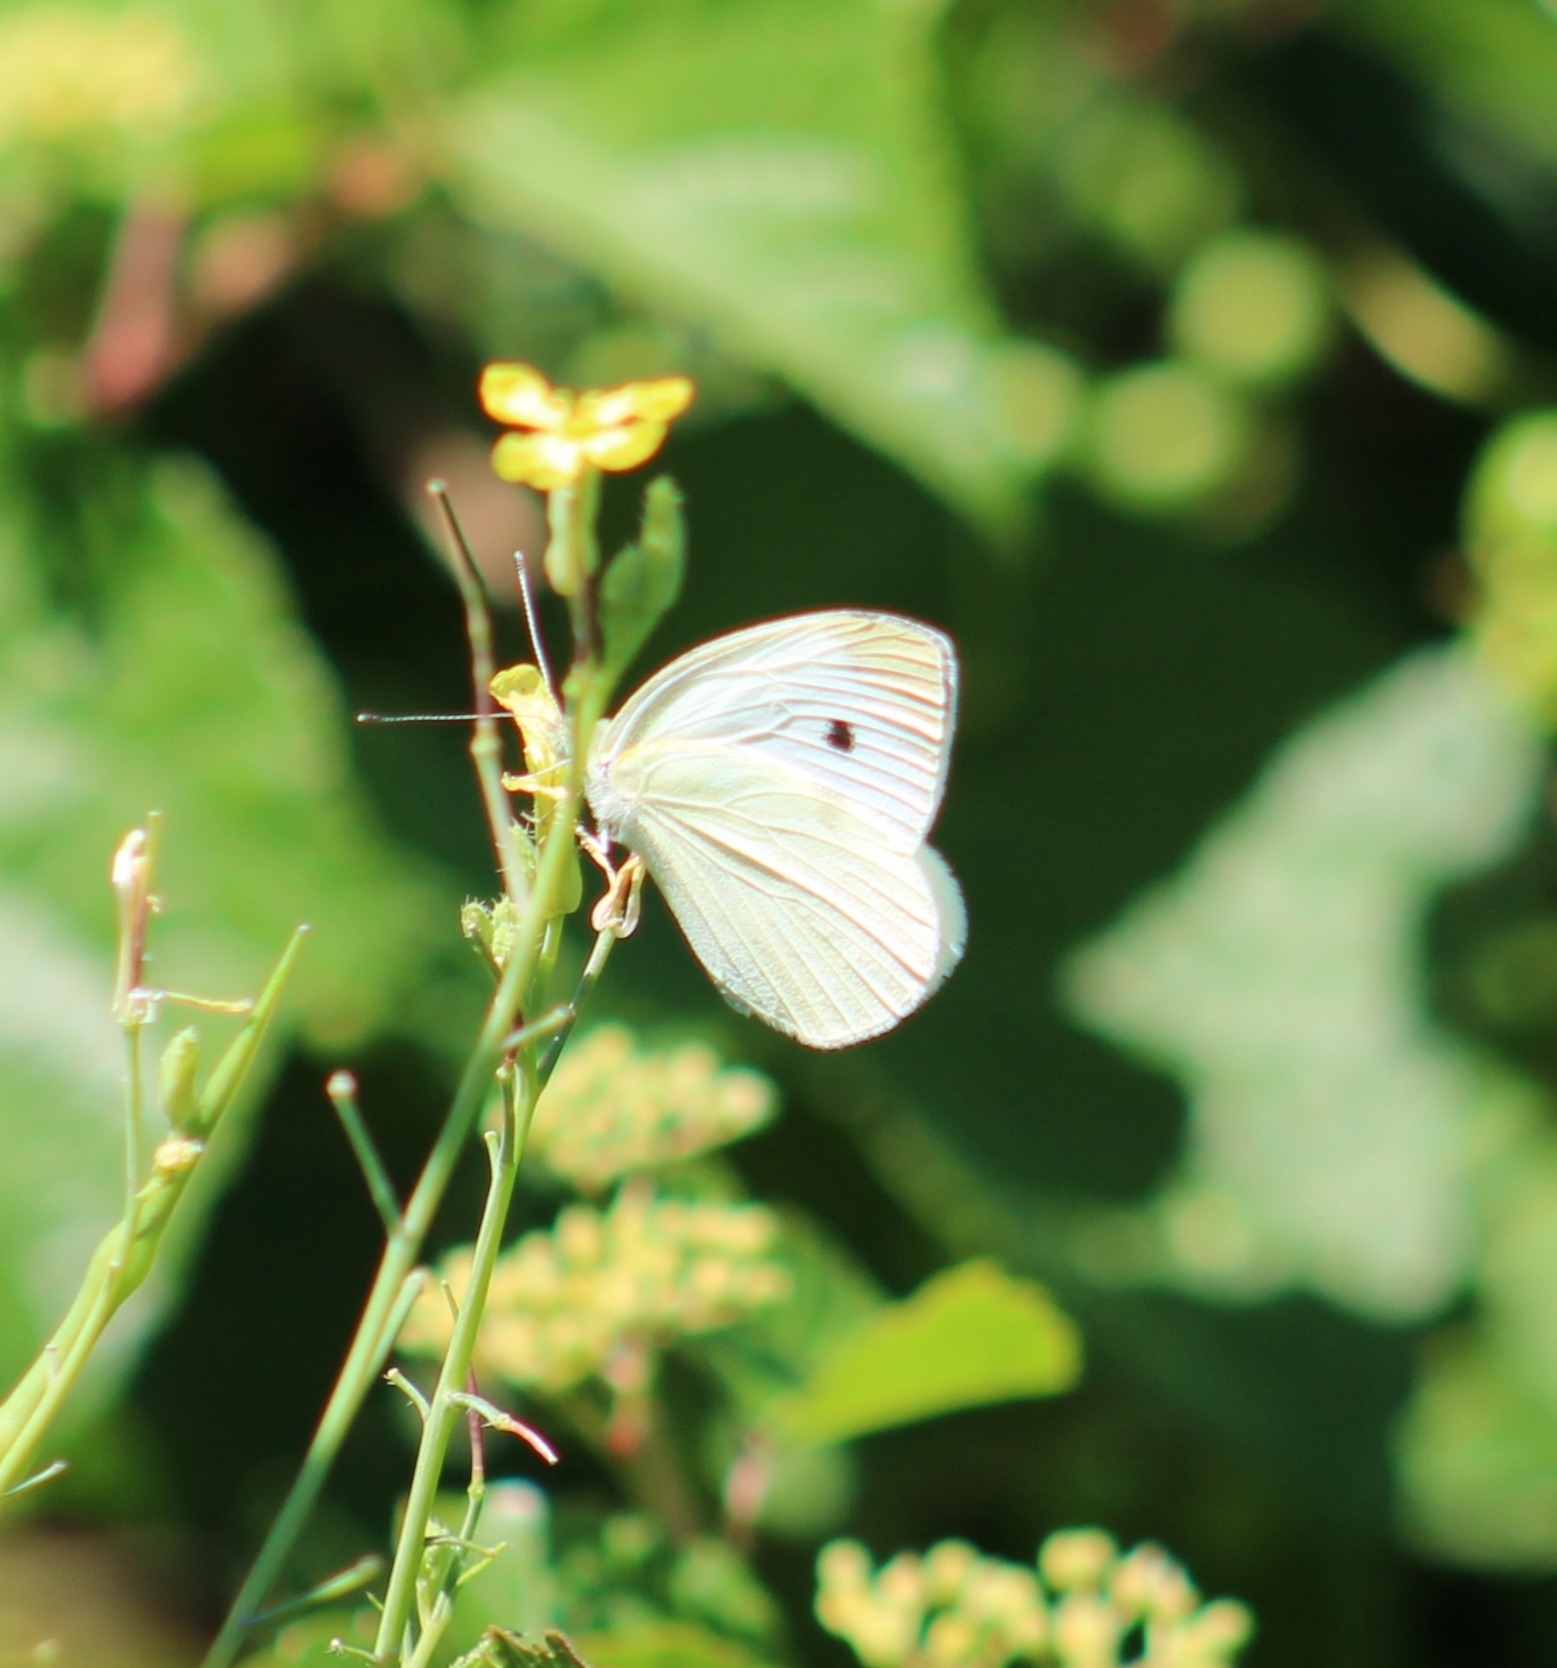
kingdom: Animalia
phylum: Arthropoda
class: Insecta
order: Lepidoptera
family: Pieridae
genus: Pieris
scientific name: Pieris rapae
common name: Small white
